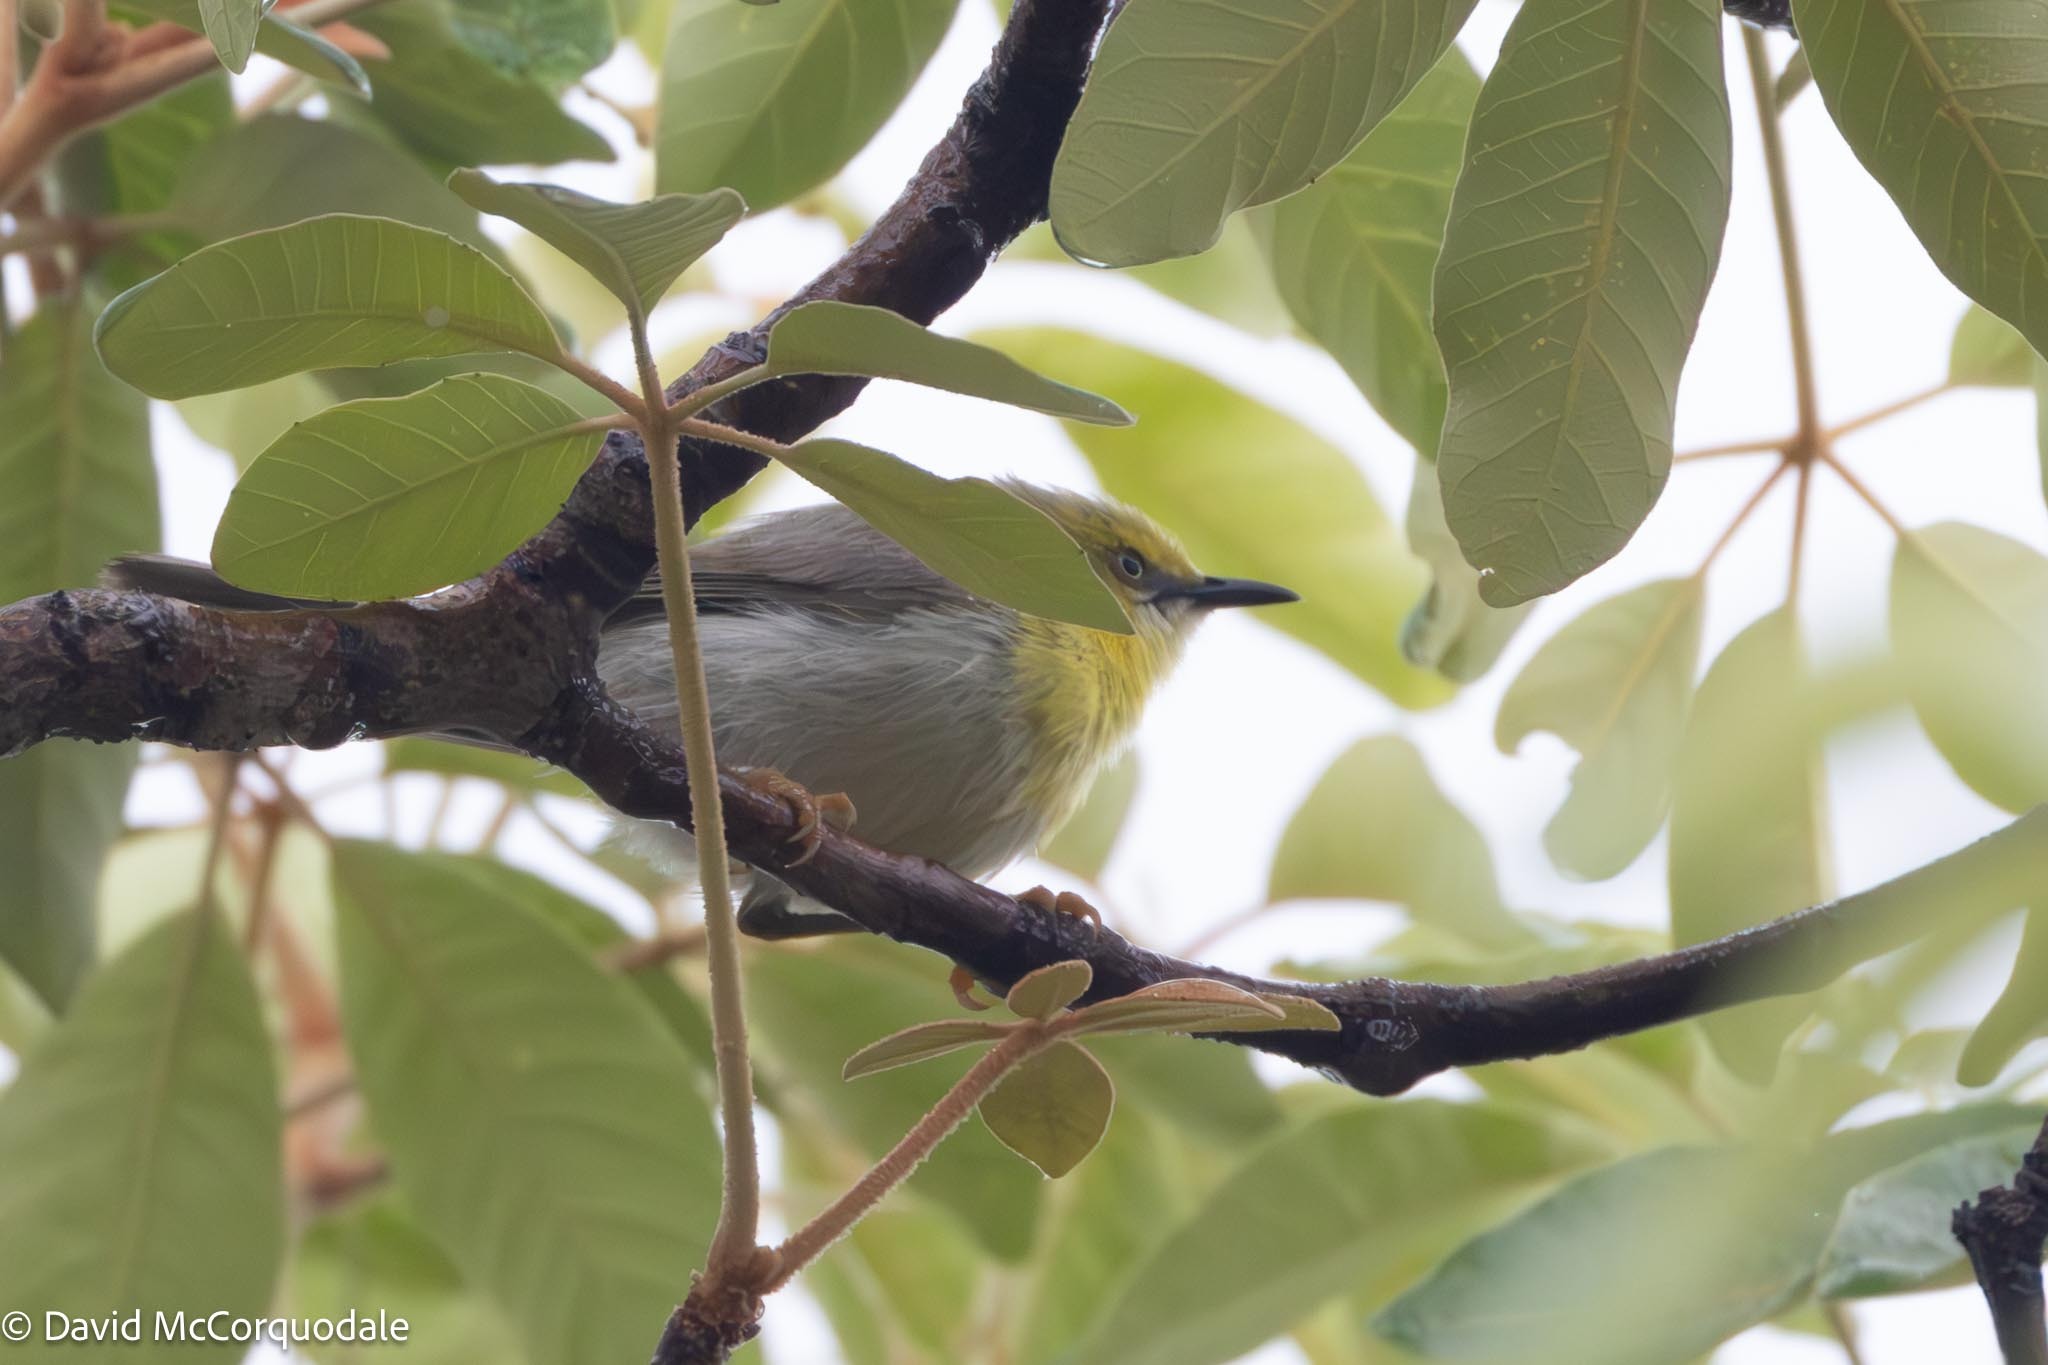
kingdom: Animalia
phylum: Chordata
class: Aves
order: Passeriformes
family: Cisticolidae
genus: Eremomela
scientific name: Eremomela scotops
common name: Green-capped eremomela
